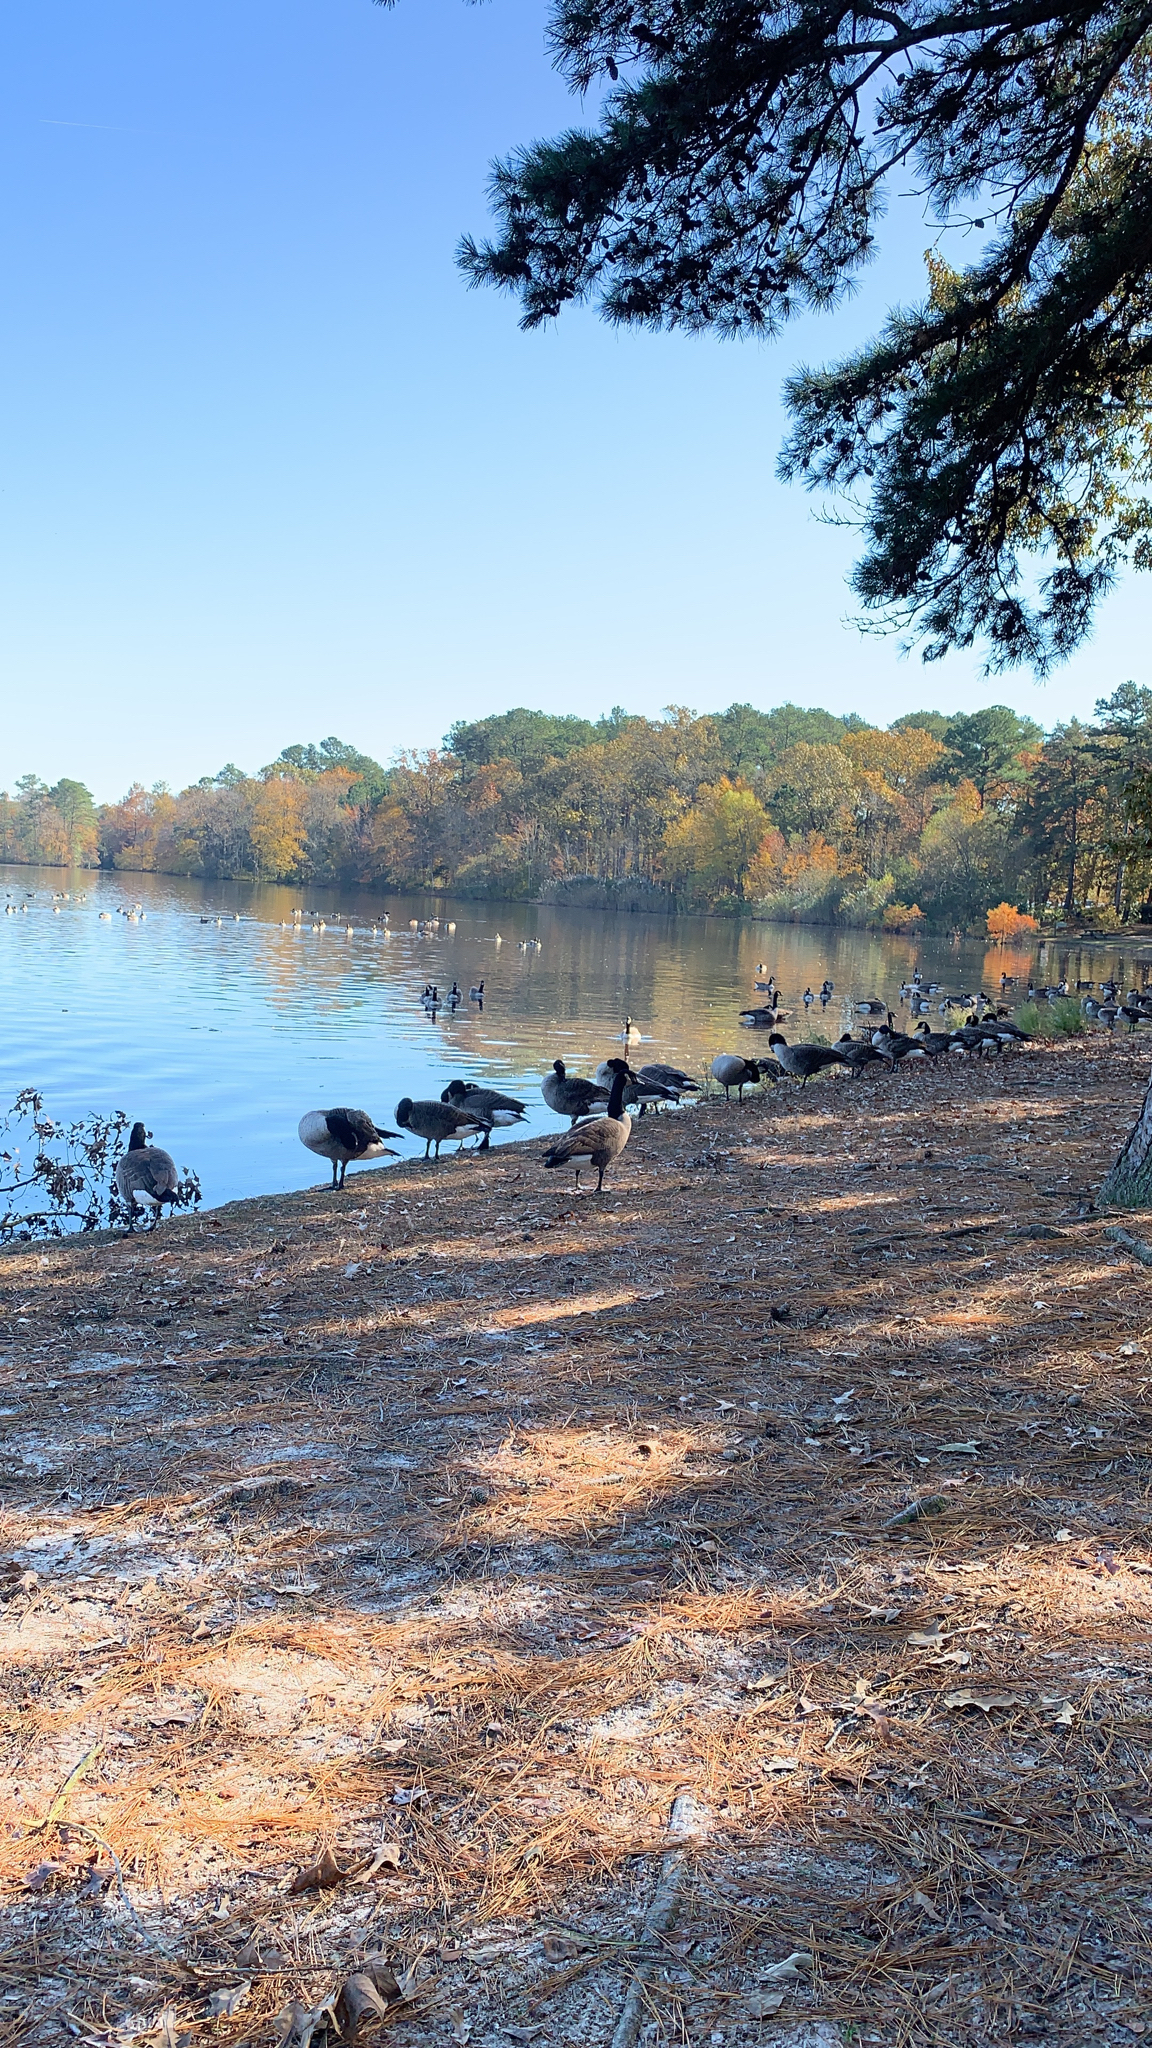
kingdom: Animalia
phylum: Chordata
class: Aves
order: Anseriformes
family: Anatidae
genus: Branta
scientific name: Branta canadensis
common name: Canada goose
